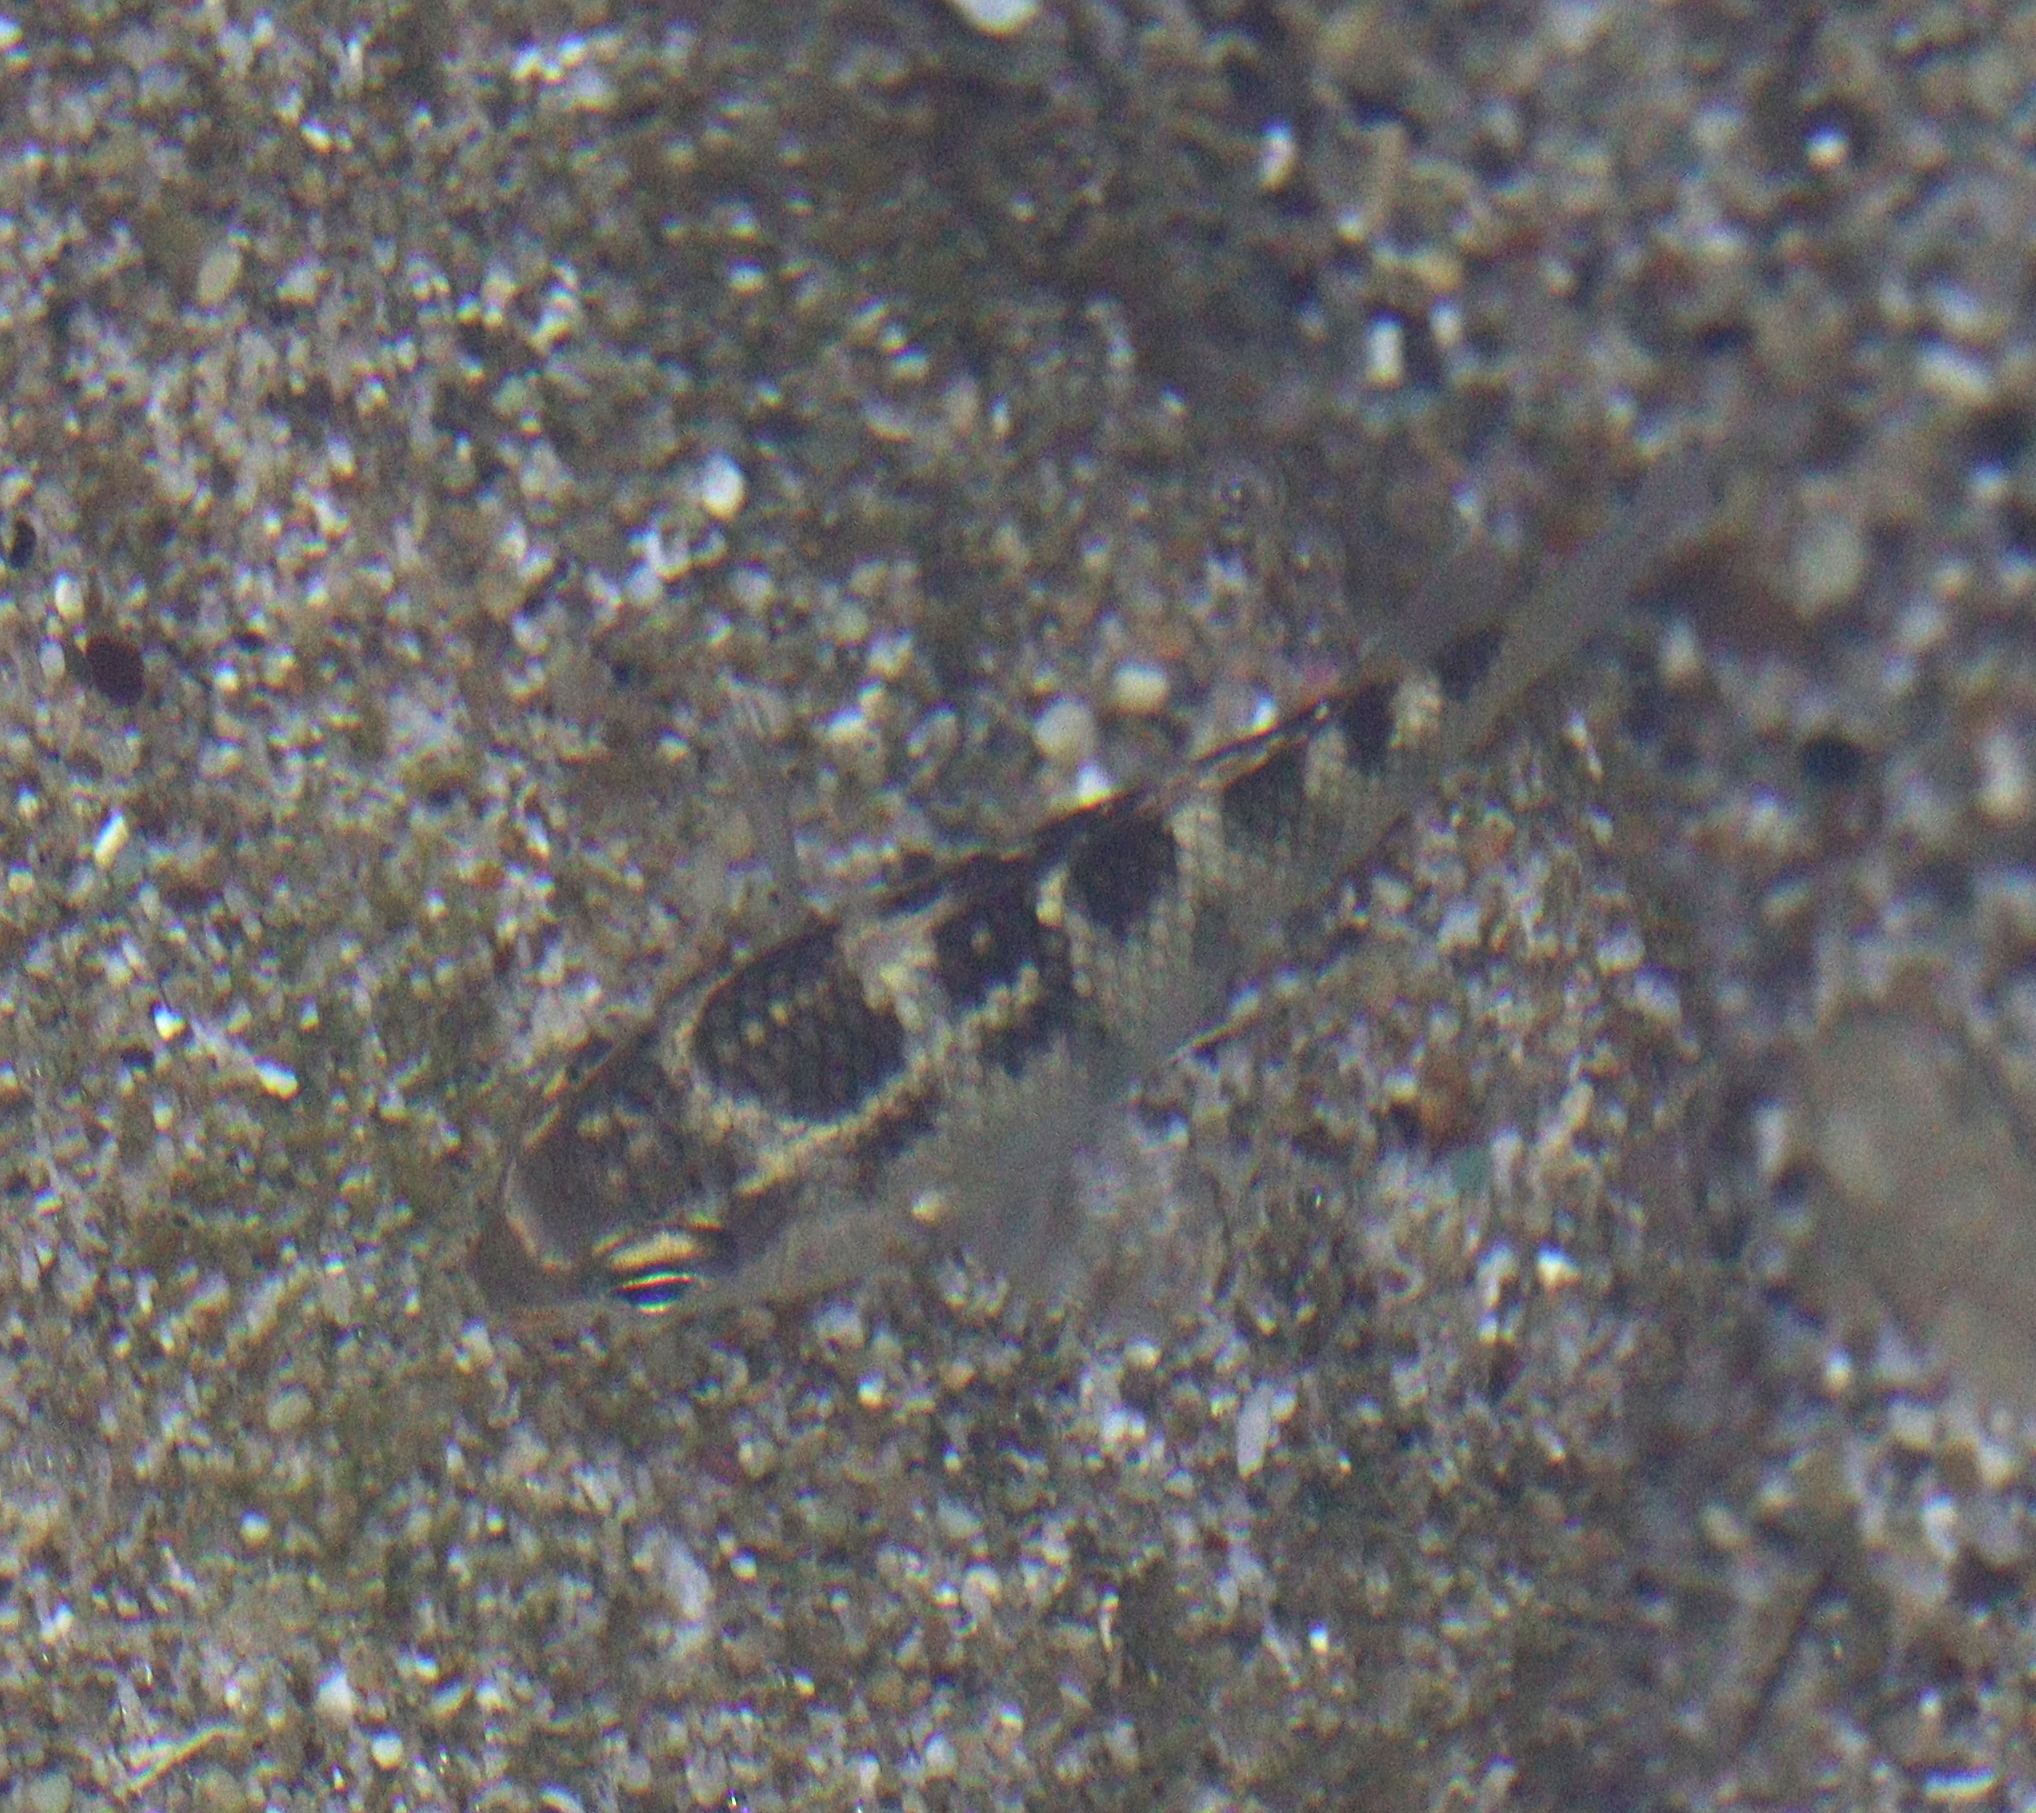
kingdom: Animalia
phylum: Chordata
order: Perciformes
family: Pomacentridae
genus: Abudefduf
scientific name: Abudefduf concolor
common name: Dusky seargent
